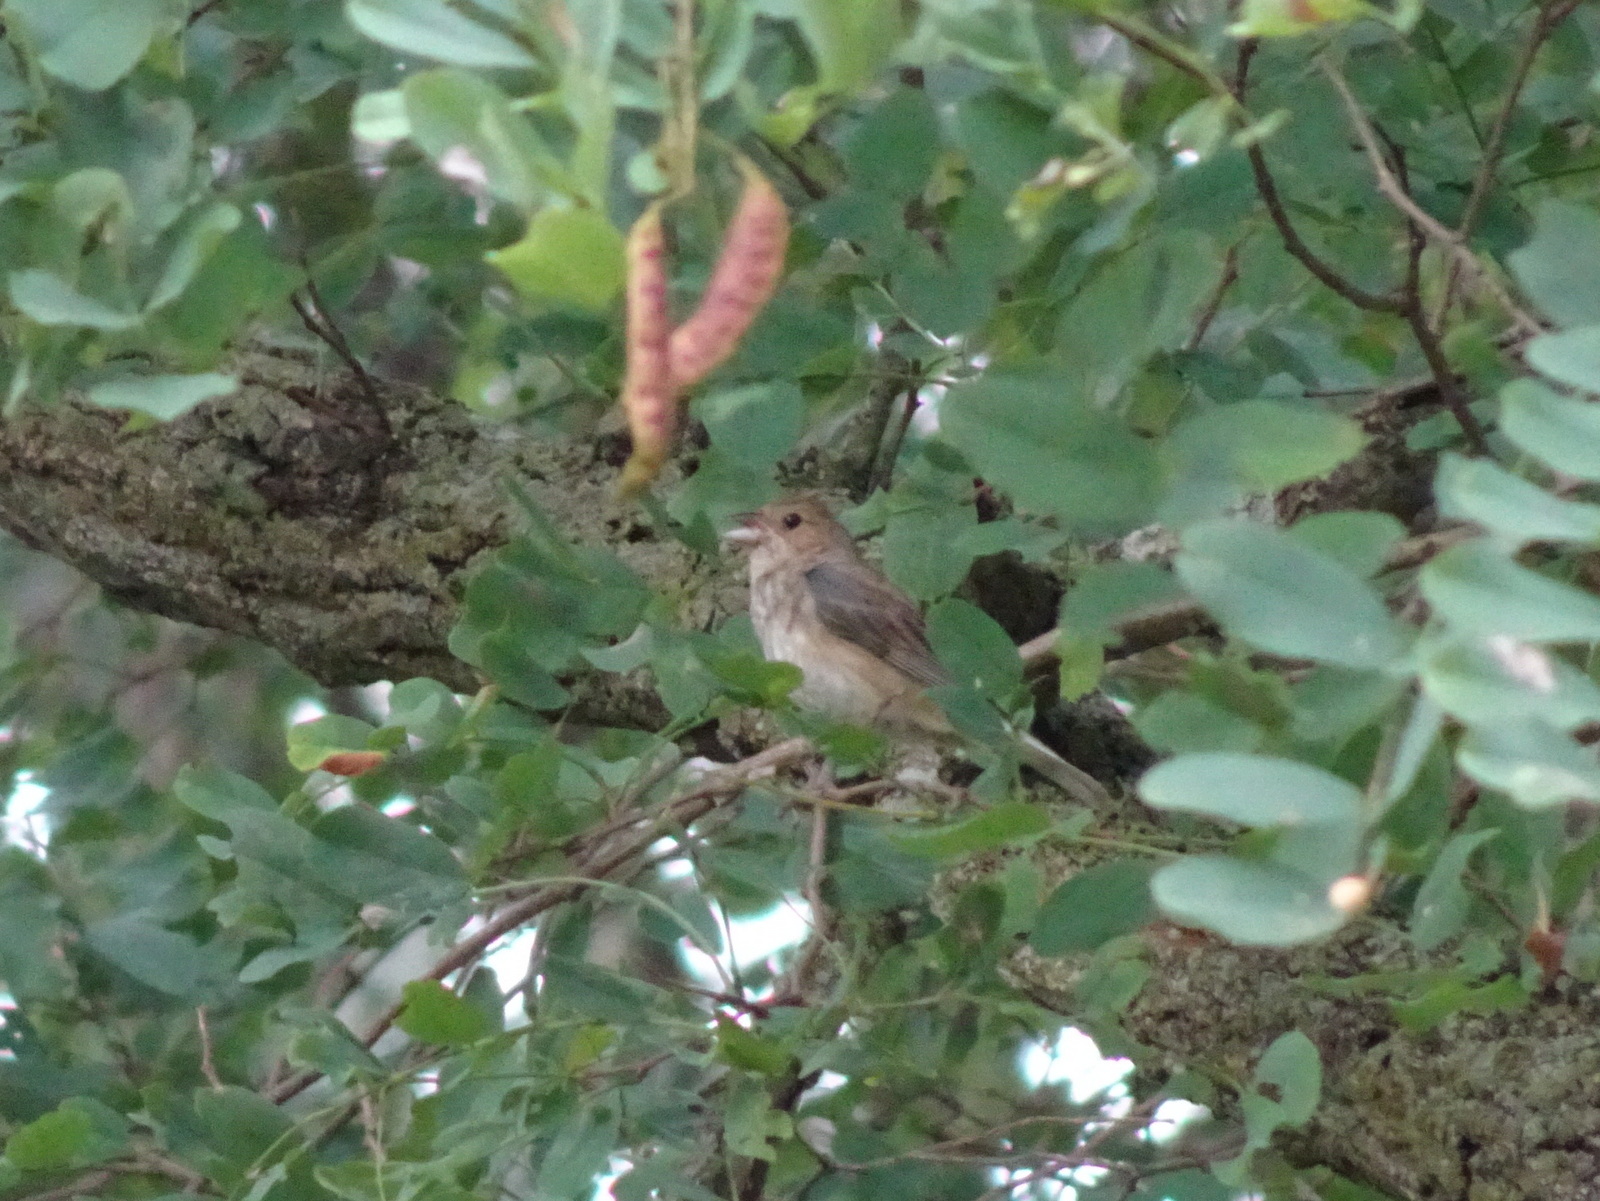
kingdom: Animalia
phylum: Chordata
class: Aves
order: Passeriformes
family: Cardinalidae
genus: Passerina
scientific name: Passerina cyanea
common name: Indigo bunting
